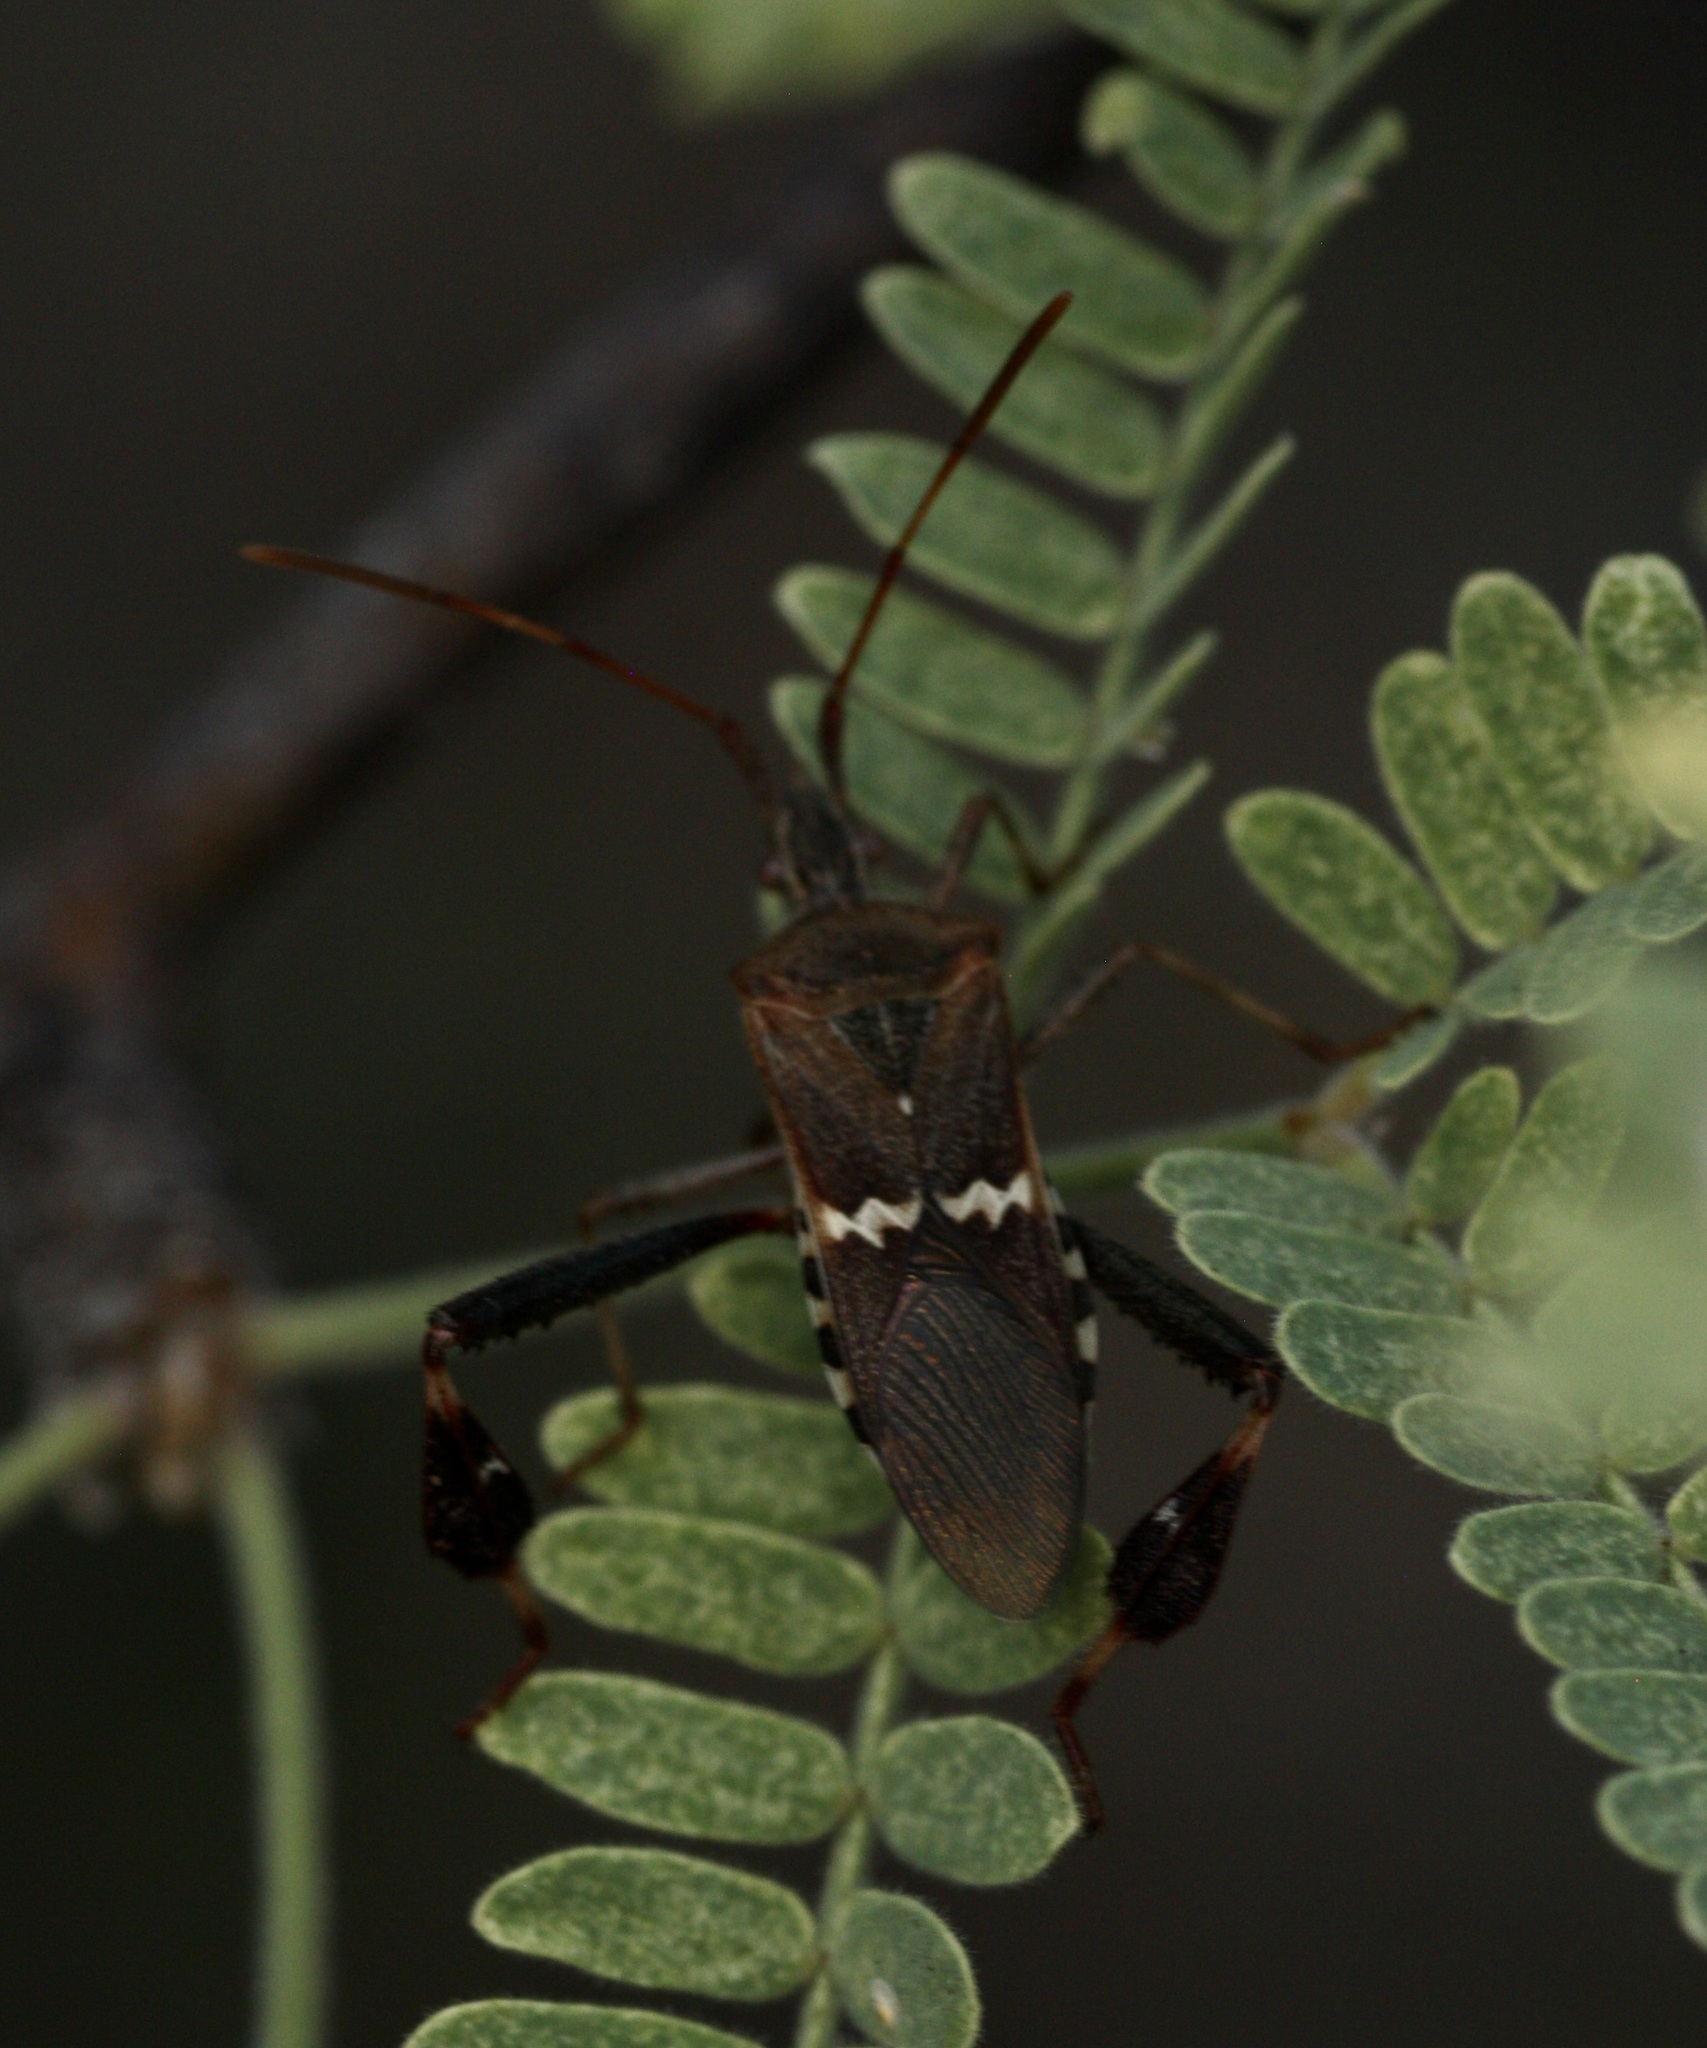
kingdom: Animalia
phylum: Arthropoda
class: Insecta
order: Hemiptera
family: Coreidae
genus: Leptoglossus
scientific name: Leptoglossus clypealis
